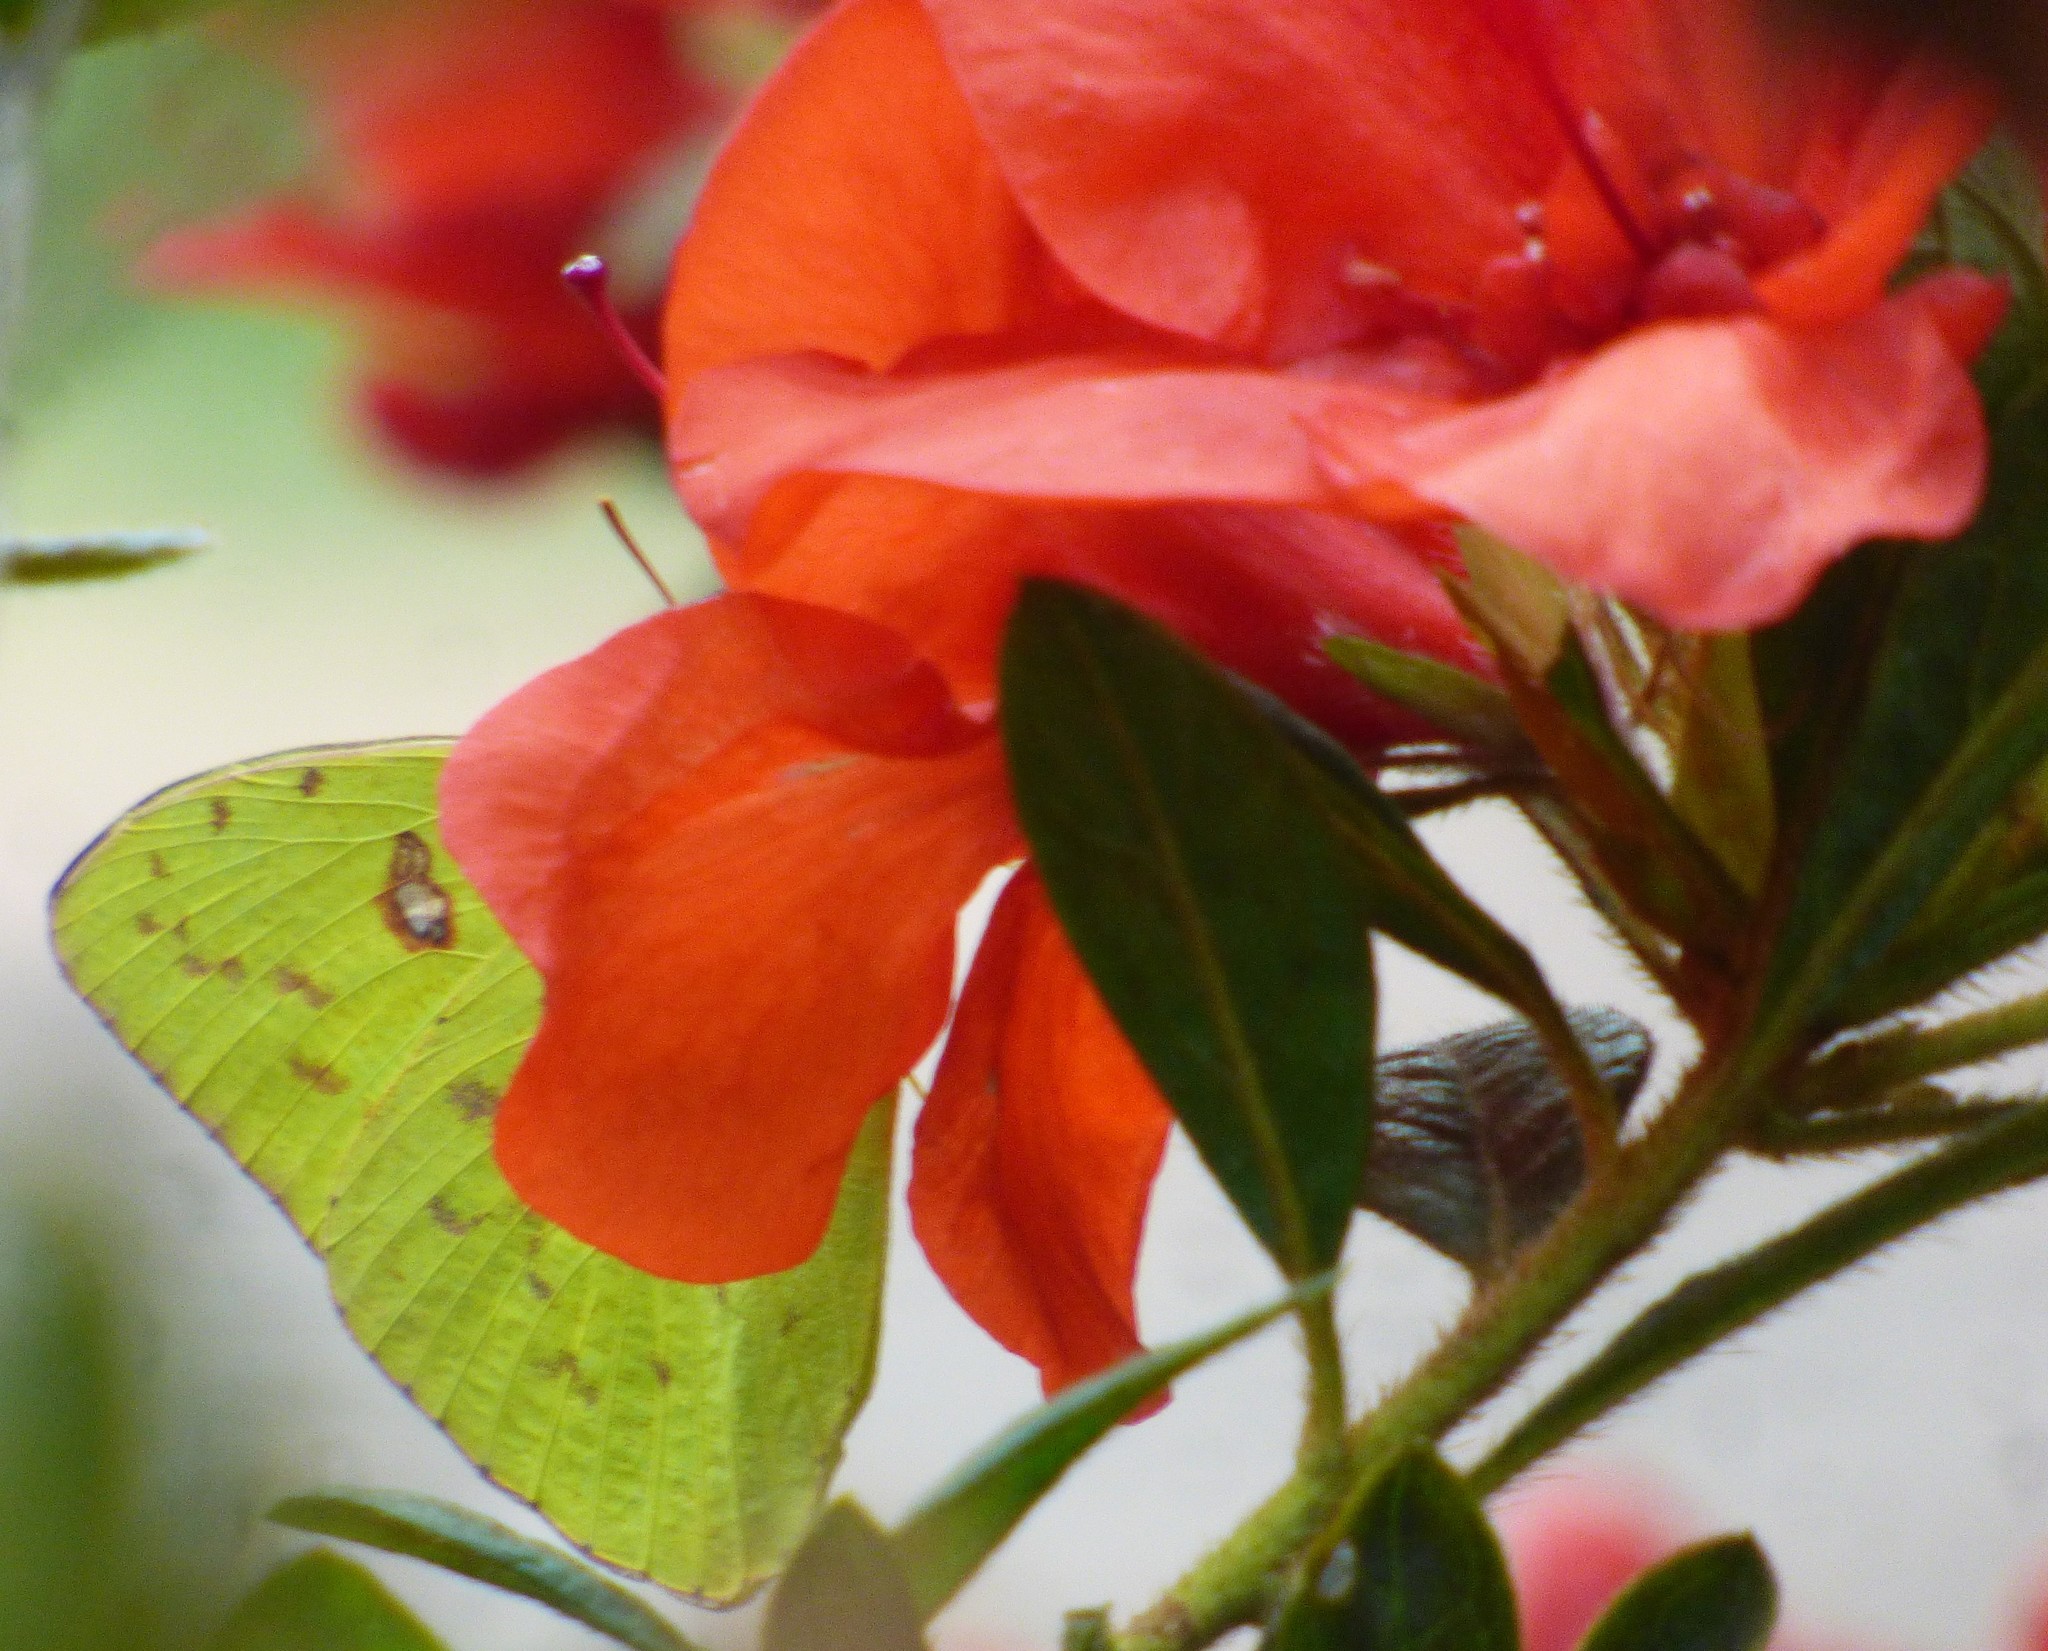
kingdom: Animalia
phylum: Arthropoda
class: Insecta
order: Lepidoptera
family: Pieridae
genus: Phoebis
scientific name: Phoebis sennae
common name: Cloudless sulphur
